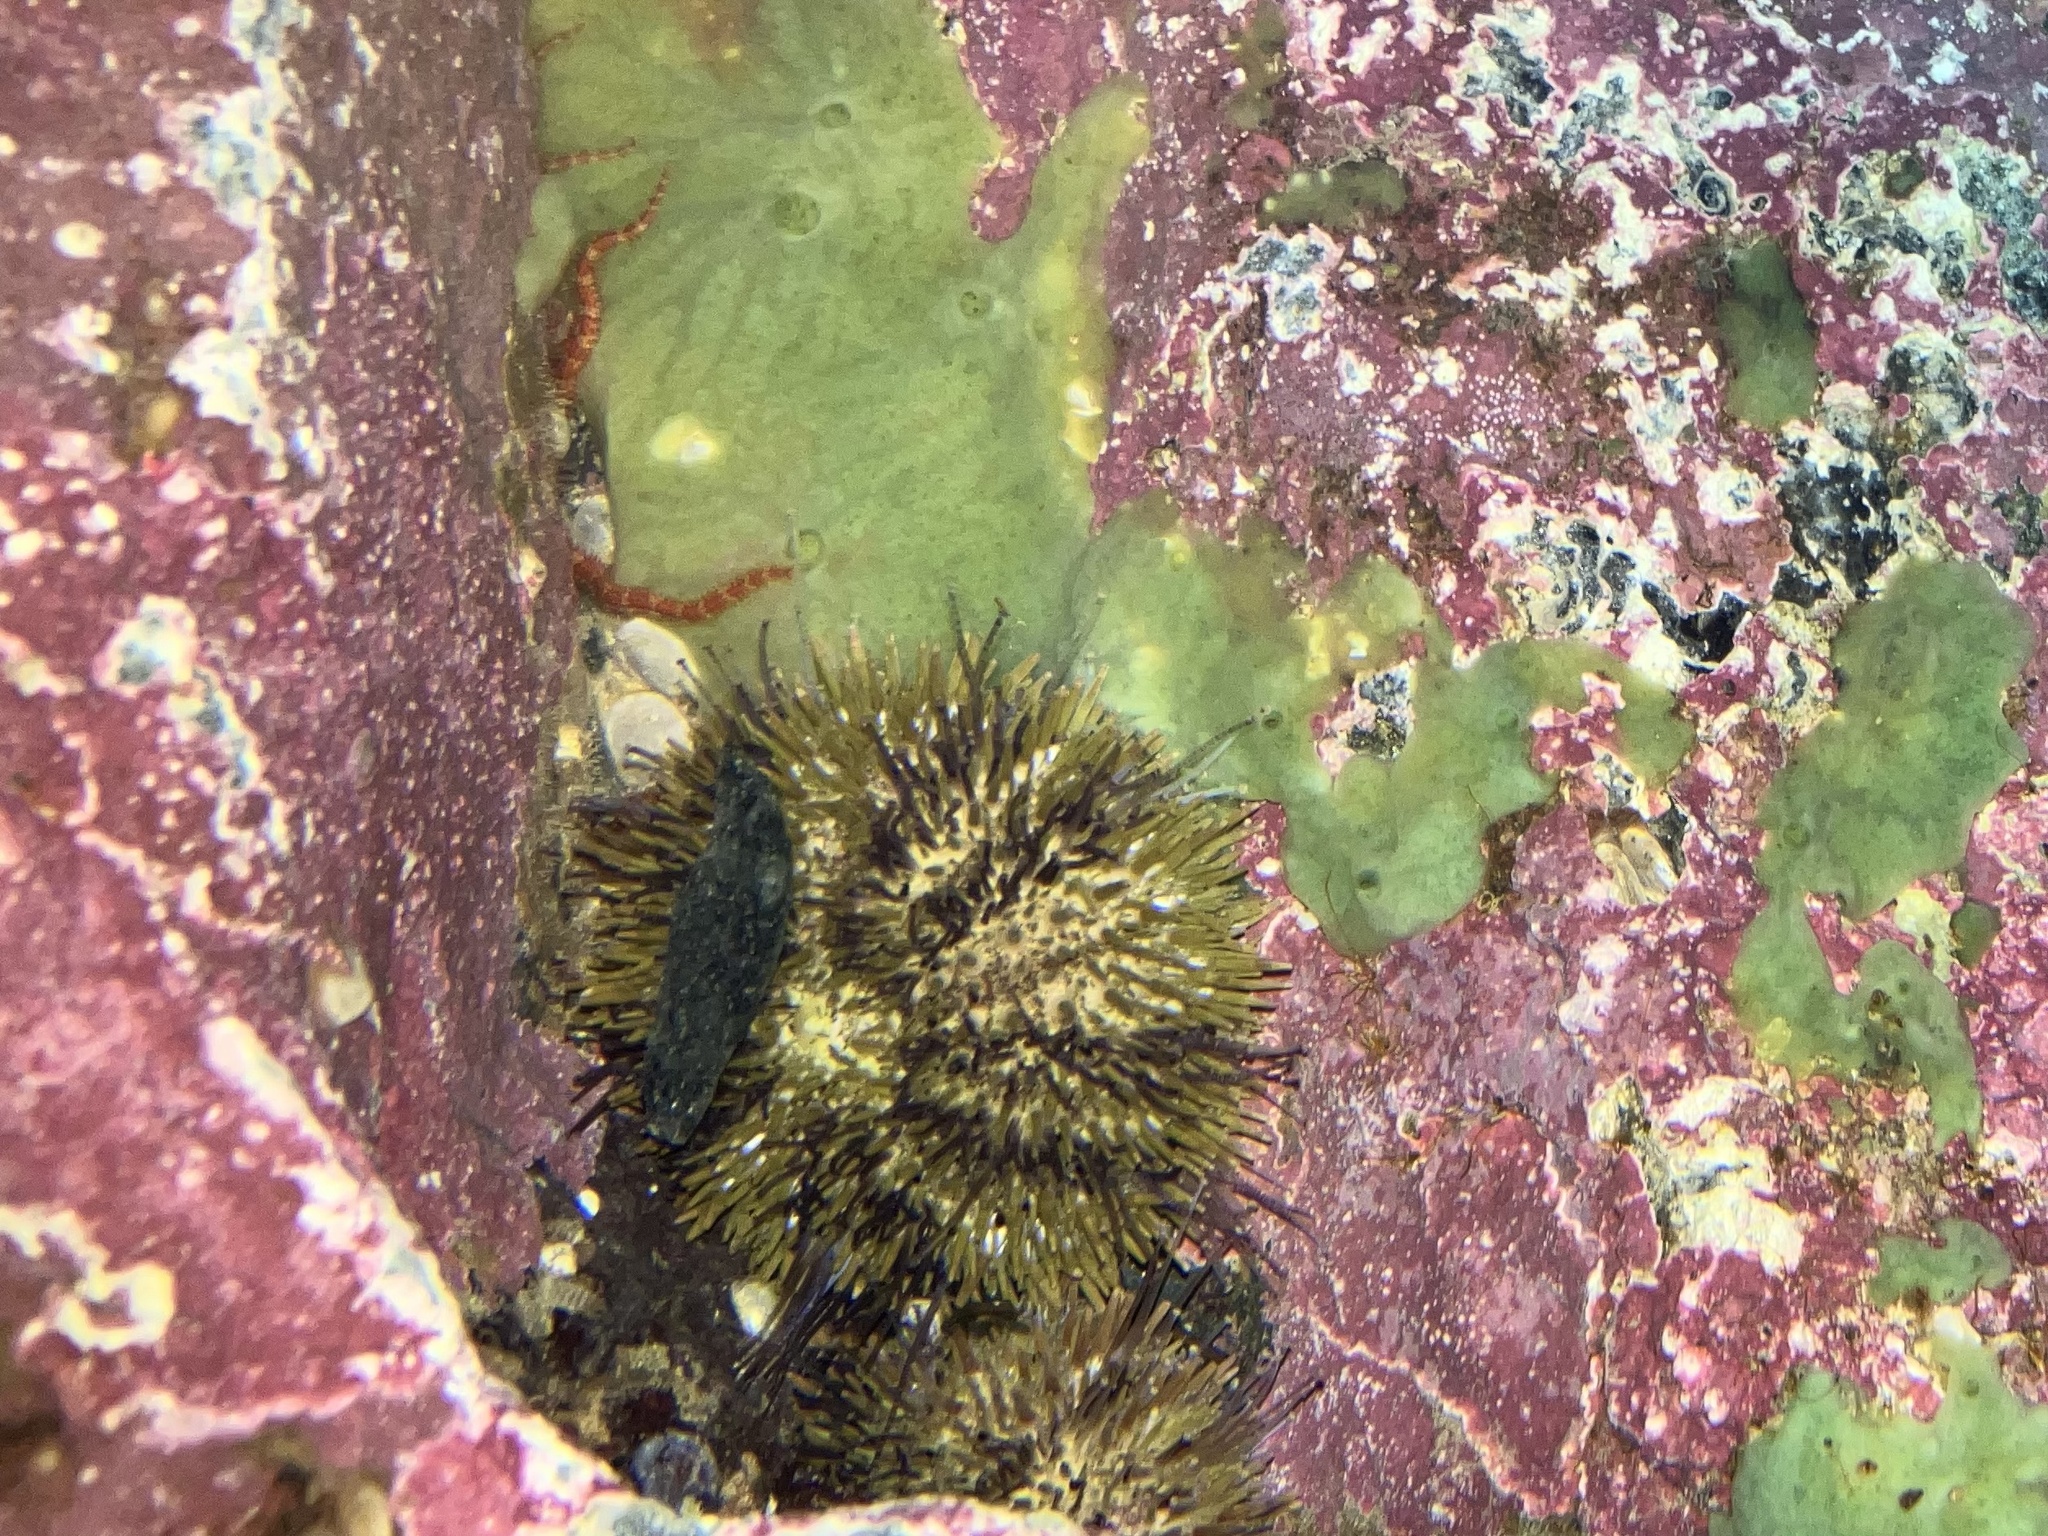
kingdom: Animalia
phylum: Echinodermata
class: Echinoidea
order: Camarodonta
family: Strongylocentrotidae
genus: Strongylocentrotus
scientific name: Strongylocentrotus droebachiensis
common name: Northern sea urchin
